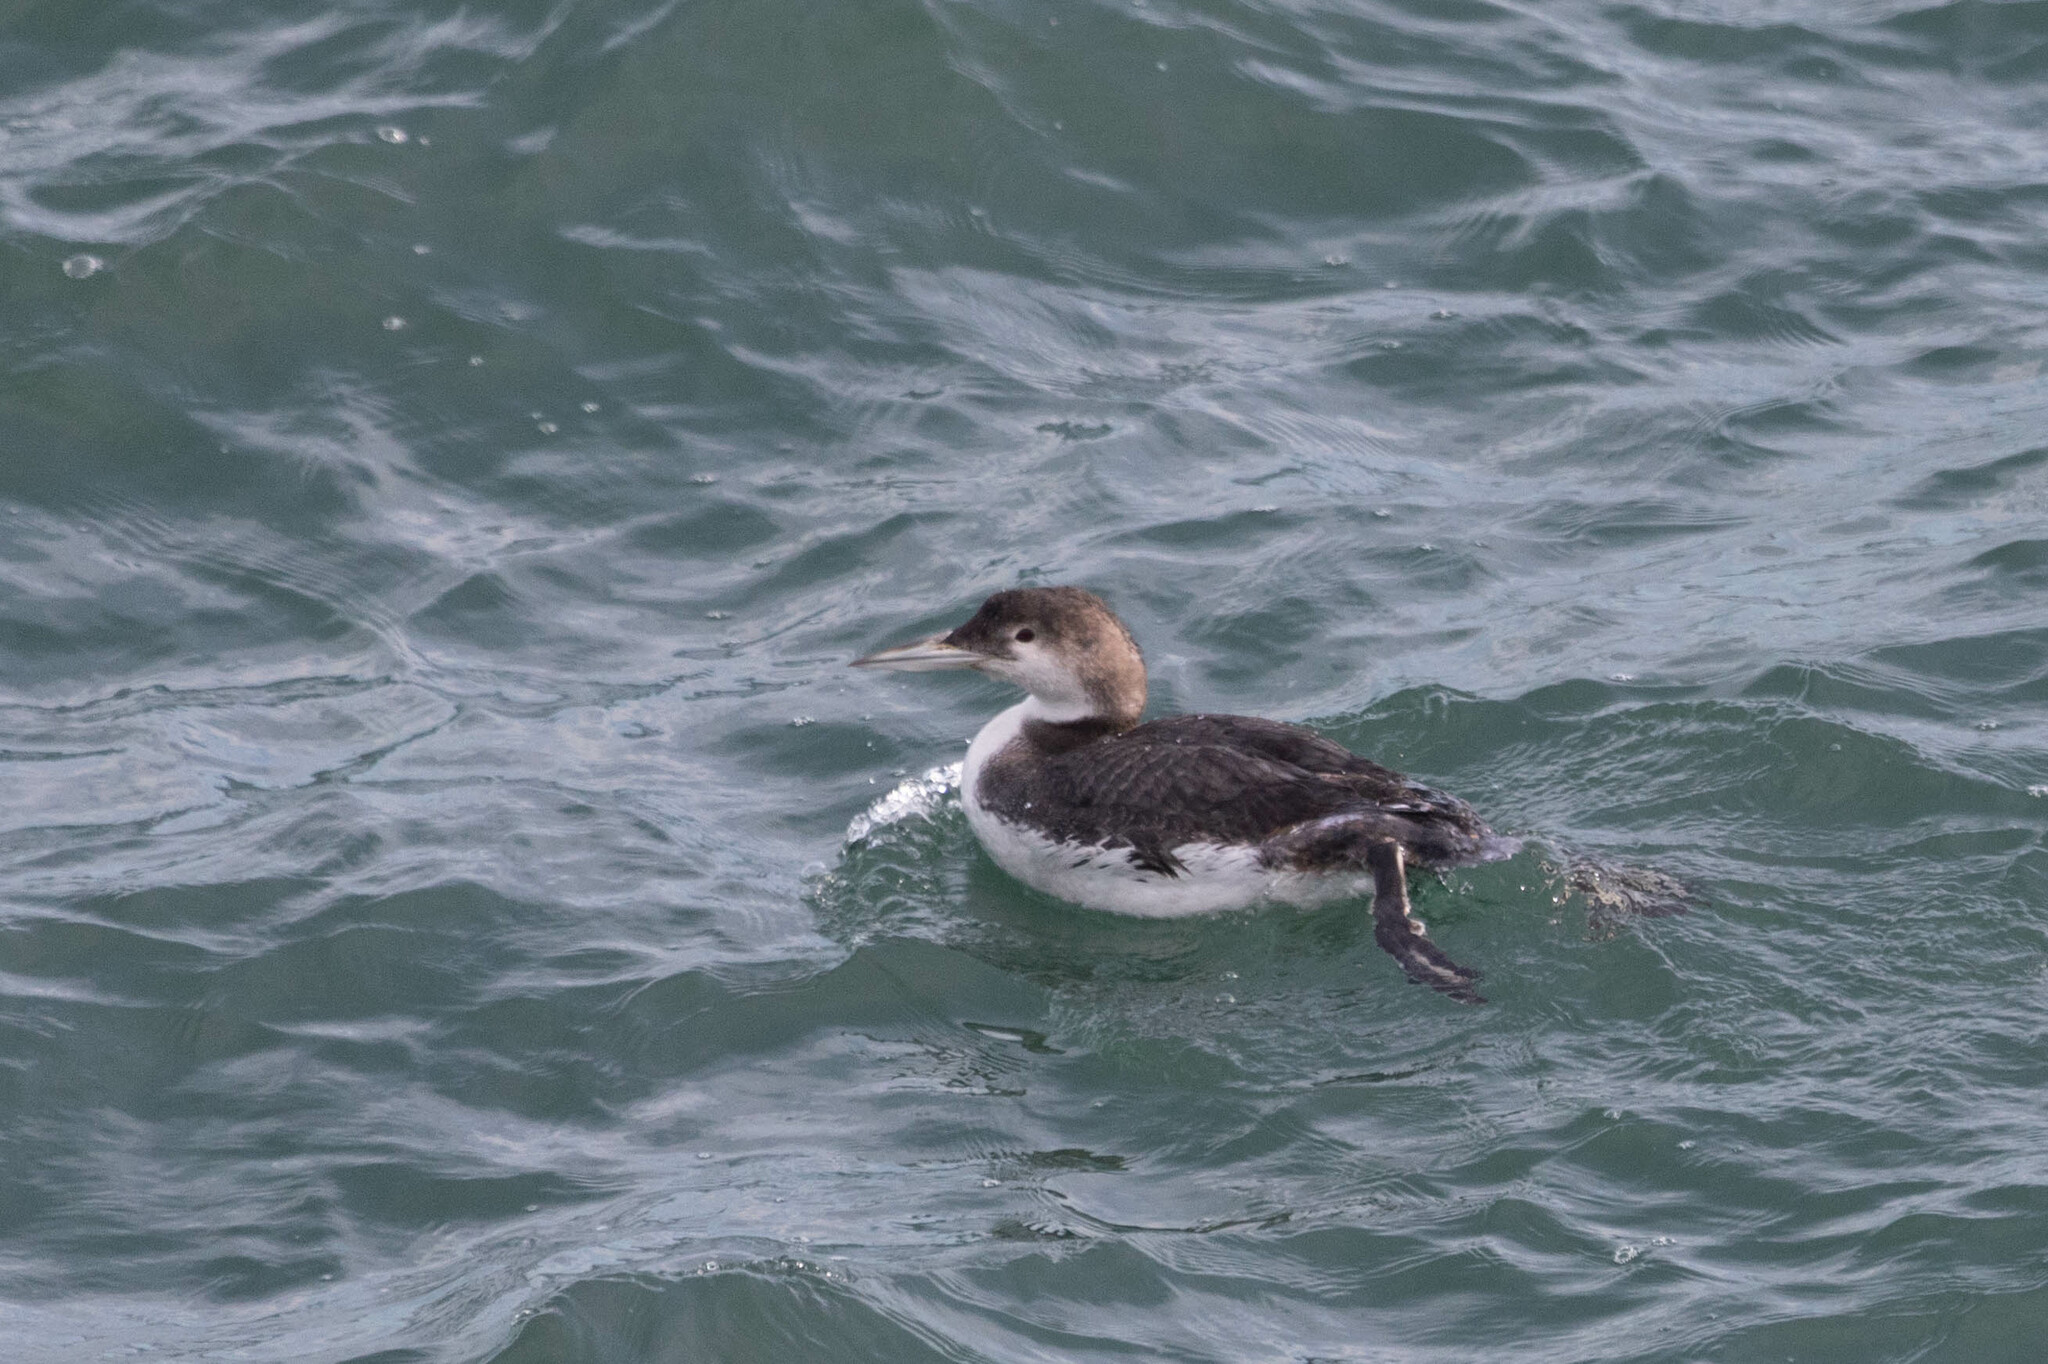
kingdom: Animalia
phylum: Chordata
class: Aves
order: Gaviiformes
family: Gaviidae
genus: Gavia
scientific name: Gavia immer
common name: Common loon
